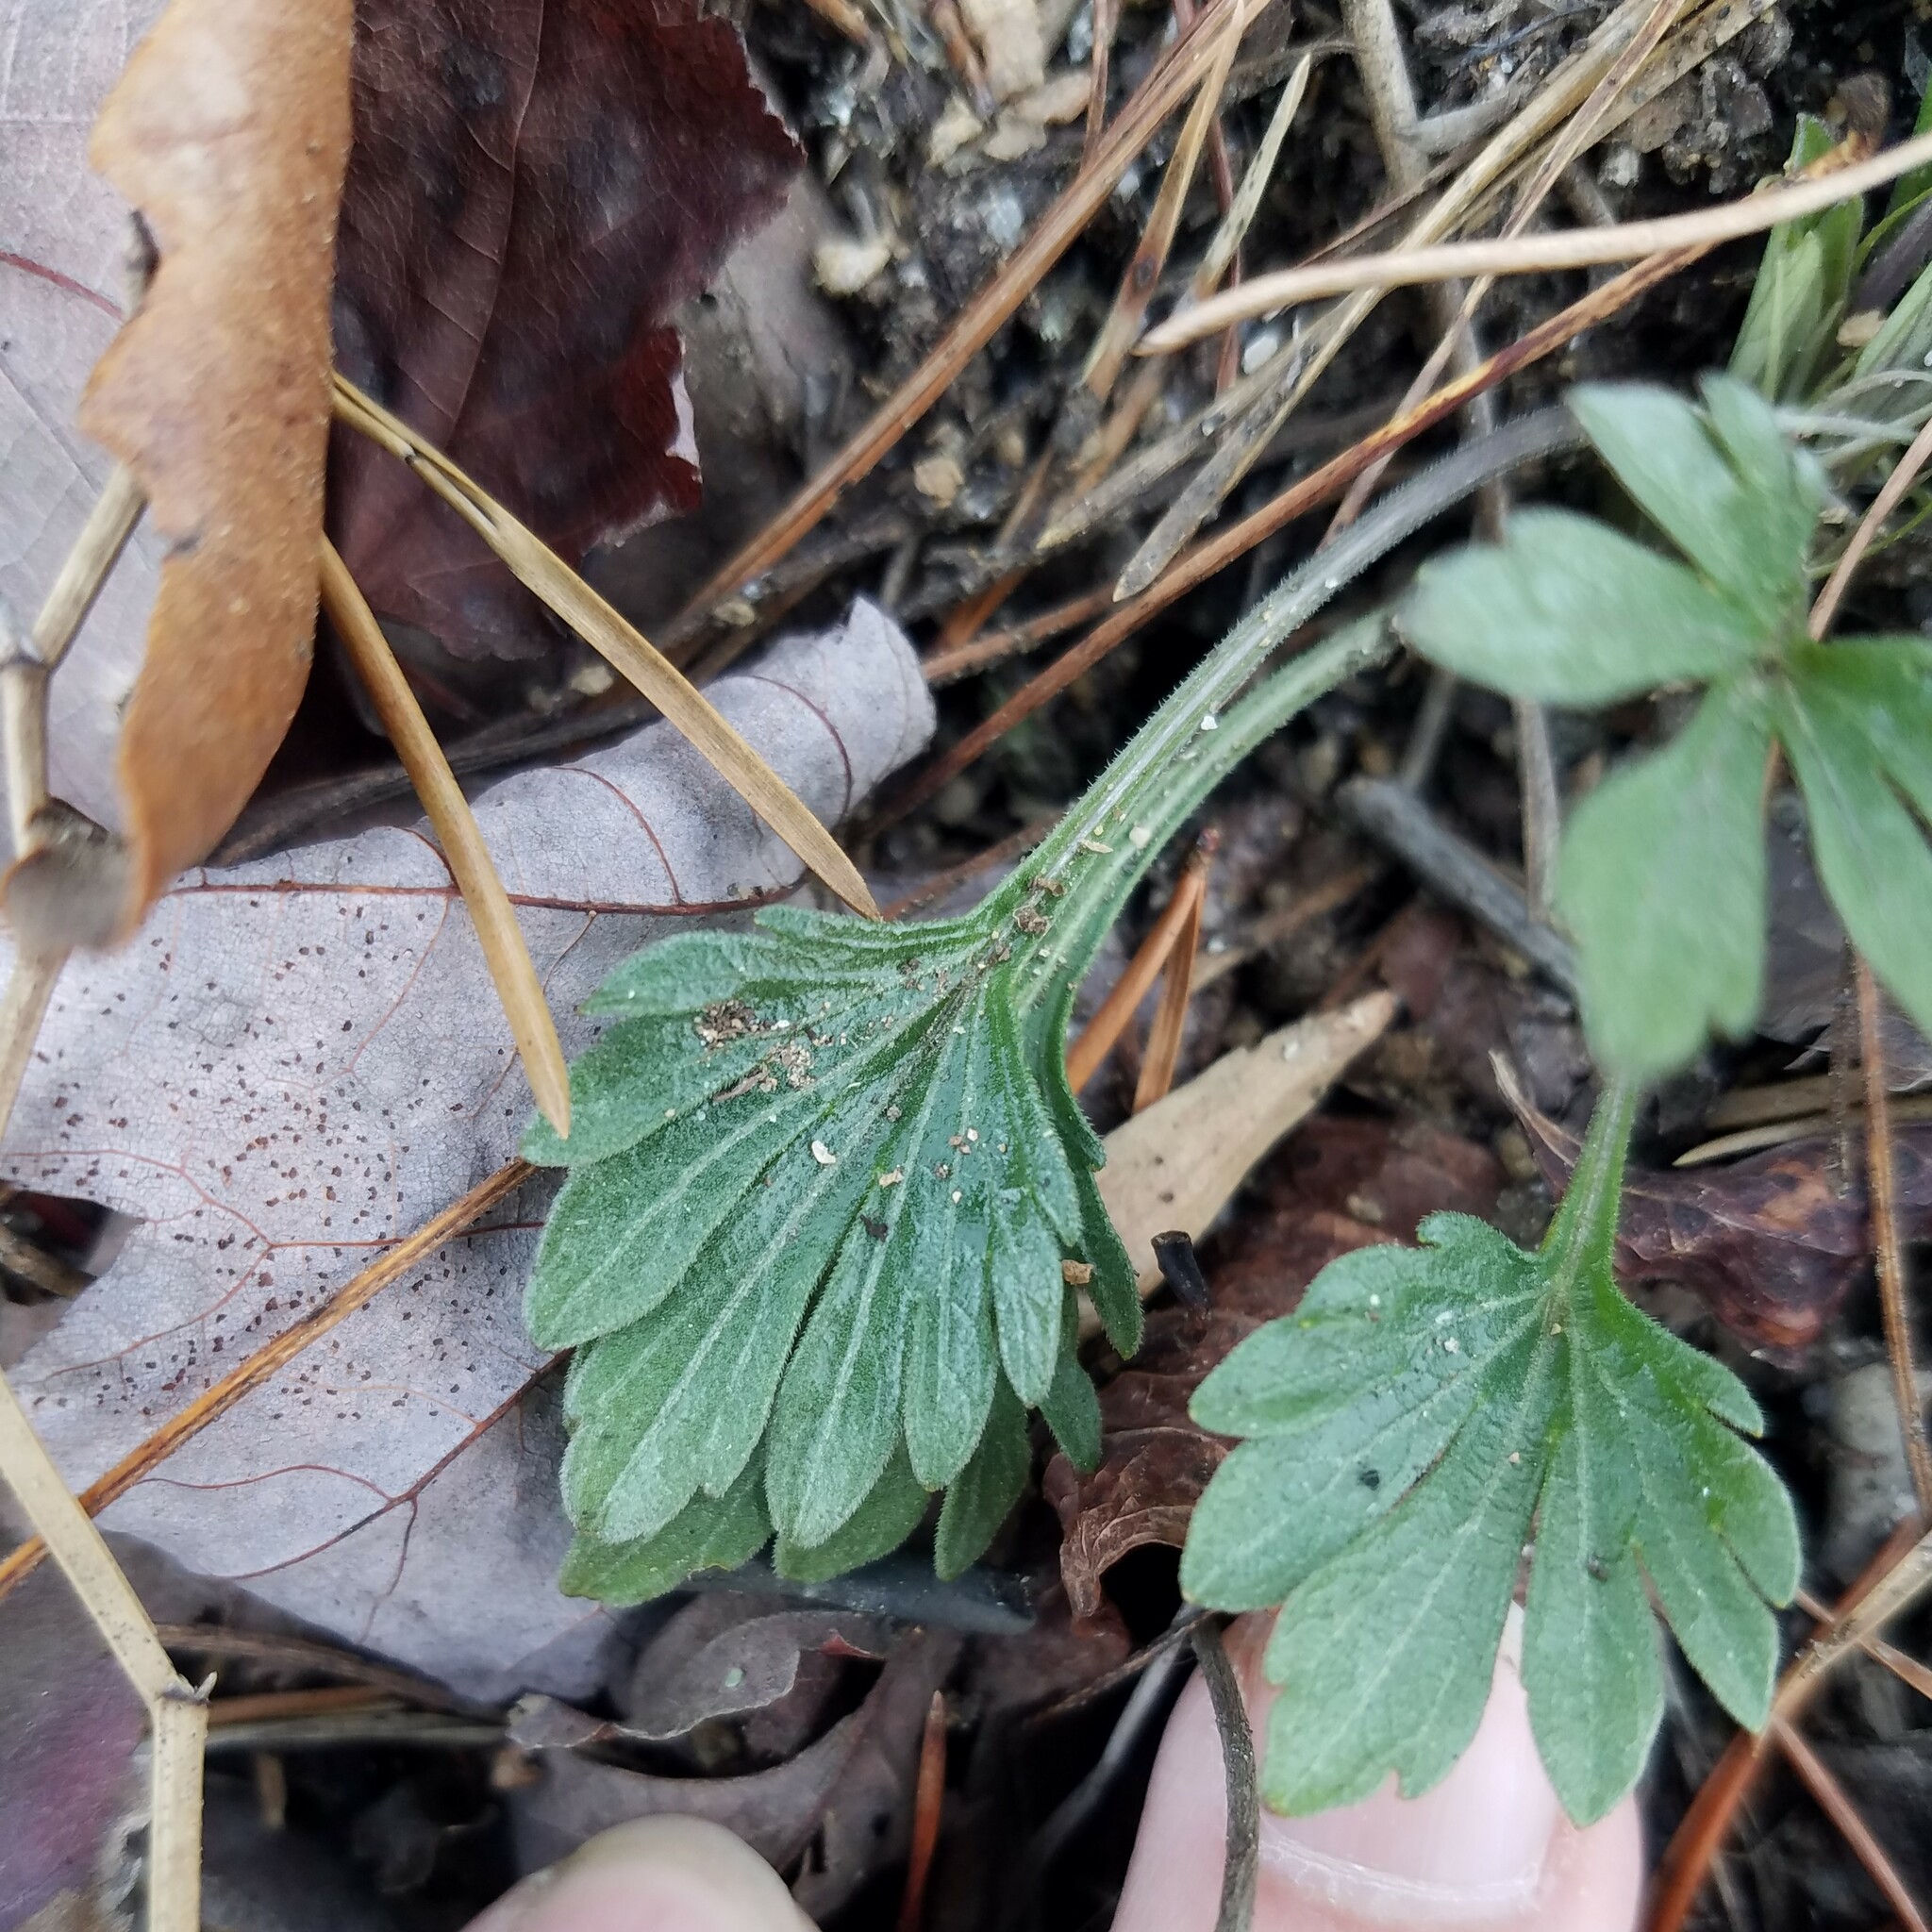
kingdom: Plantae
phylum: Tracheophyta
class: Magnoliopsida
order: Malpighiales
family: Violaceae
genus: Viola
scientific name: Viola pedata
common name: Pansy violet
